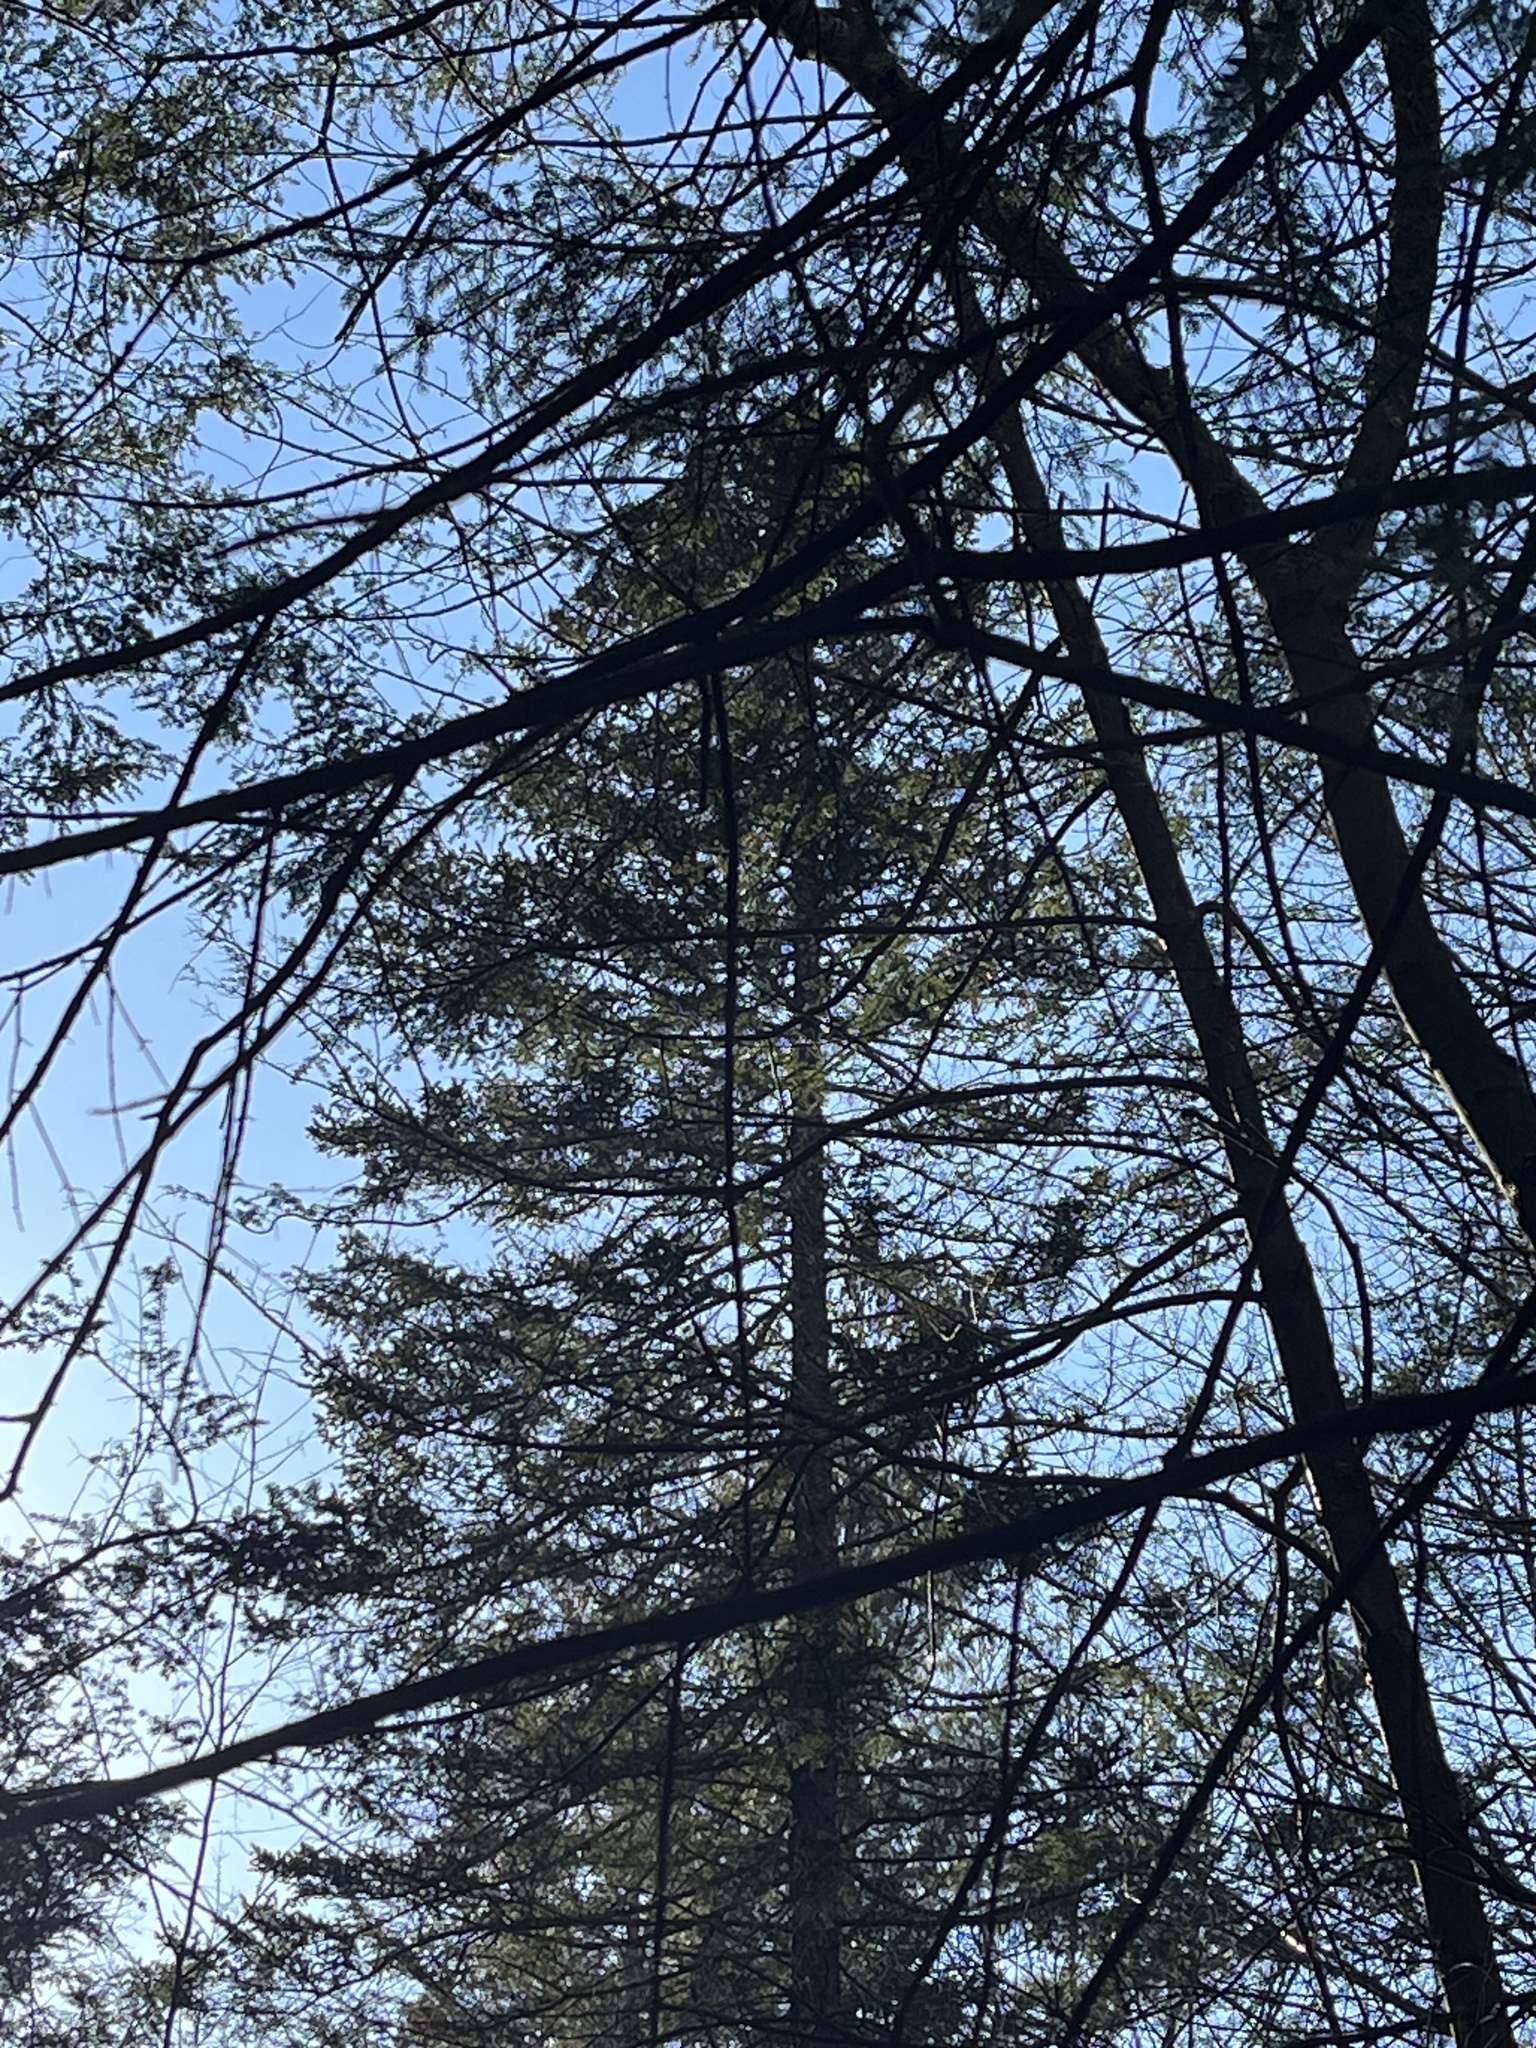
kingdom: Plantae
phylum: Tracheophyta
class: Pinopsida
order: Pinales
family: Pinaceae
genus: Picea
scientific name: Picea rubens
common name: Red spruce
